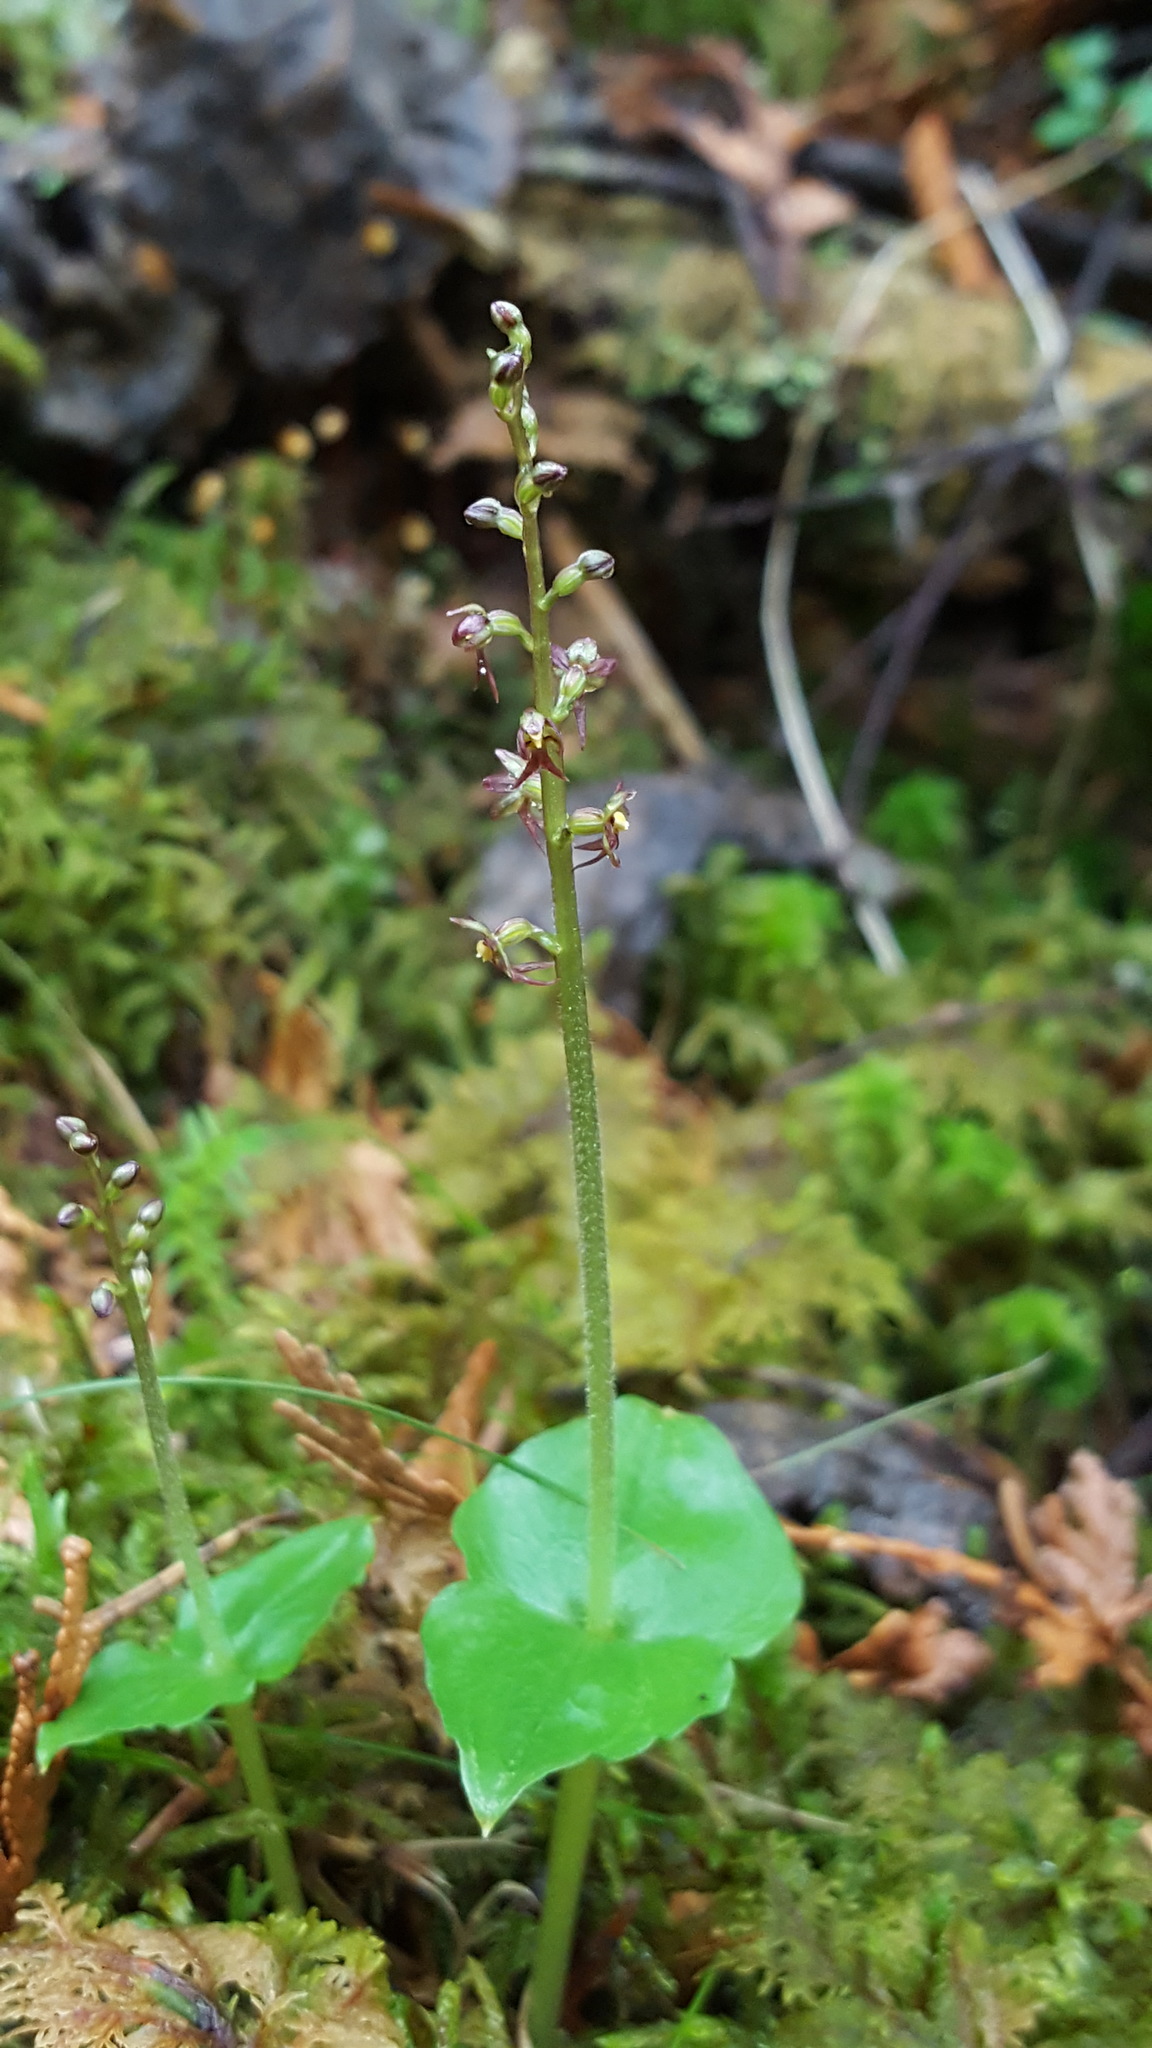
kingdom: Plantae
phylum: Tracheophyta
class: Liliopsida
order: Asparagales
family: Orchidaceae
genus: Neottia
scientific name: Neottia cordata
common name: Lesser twayblade
